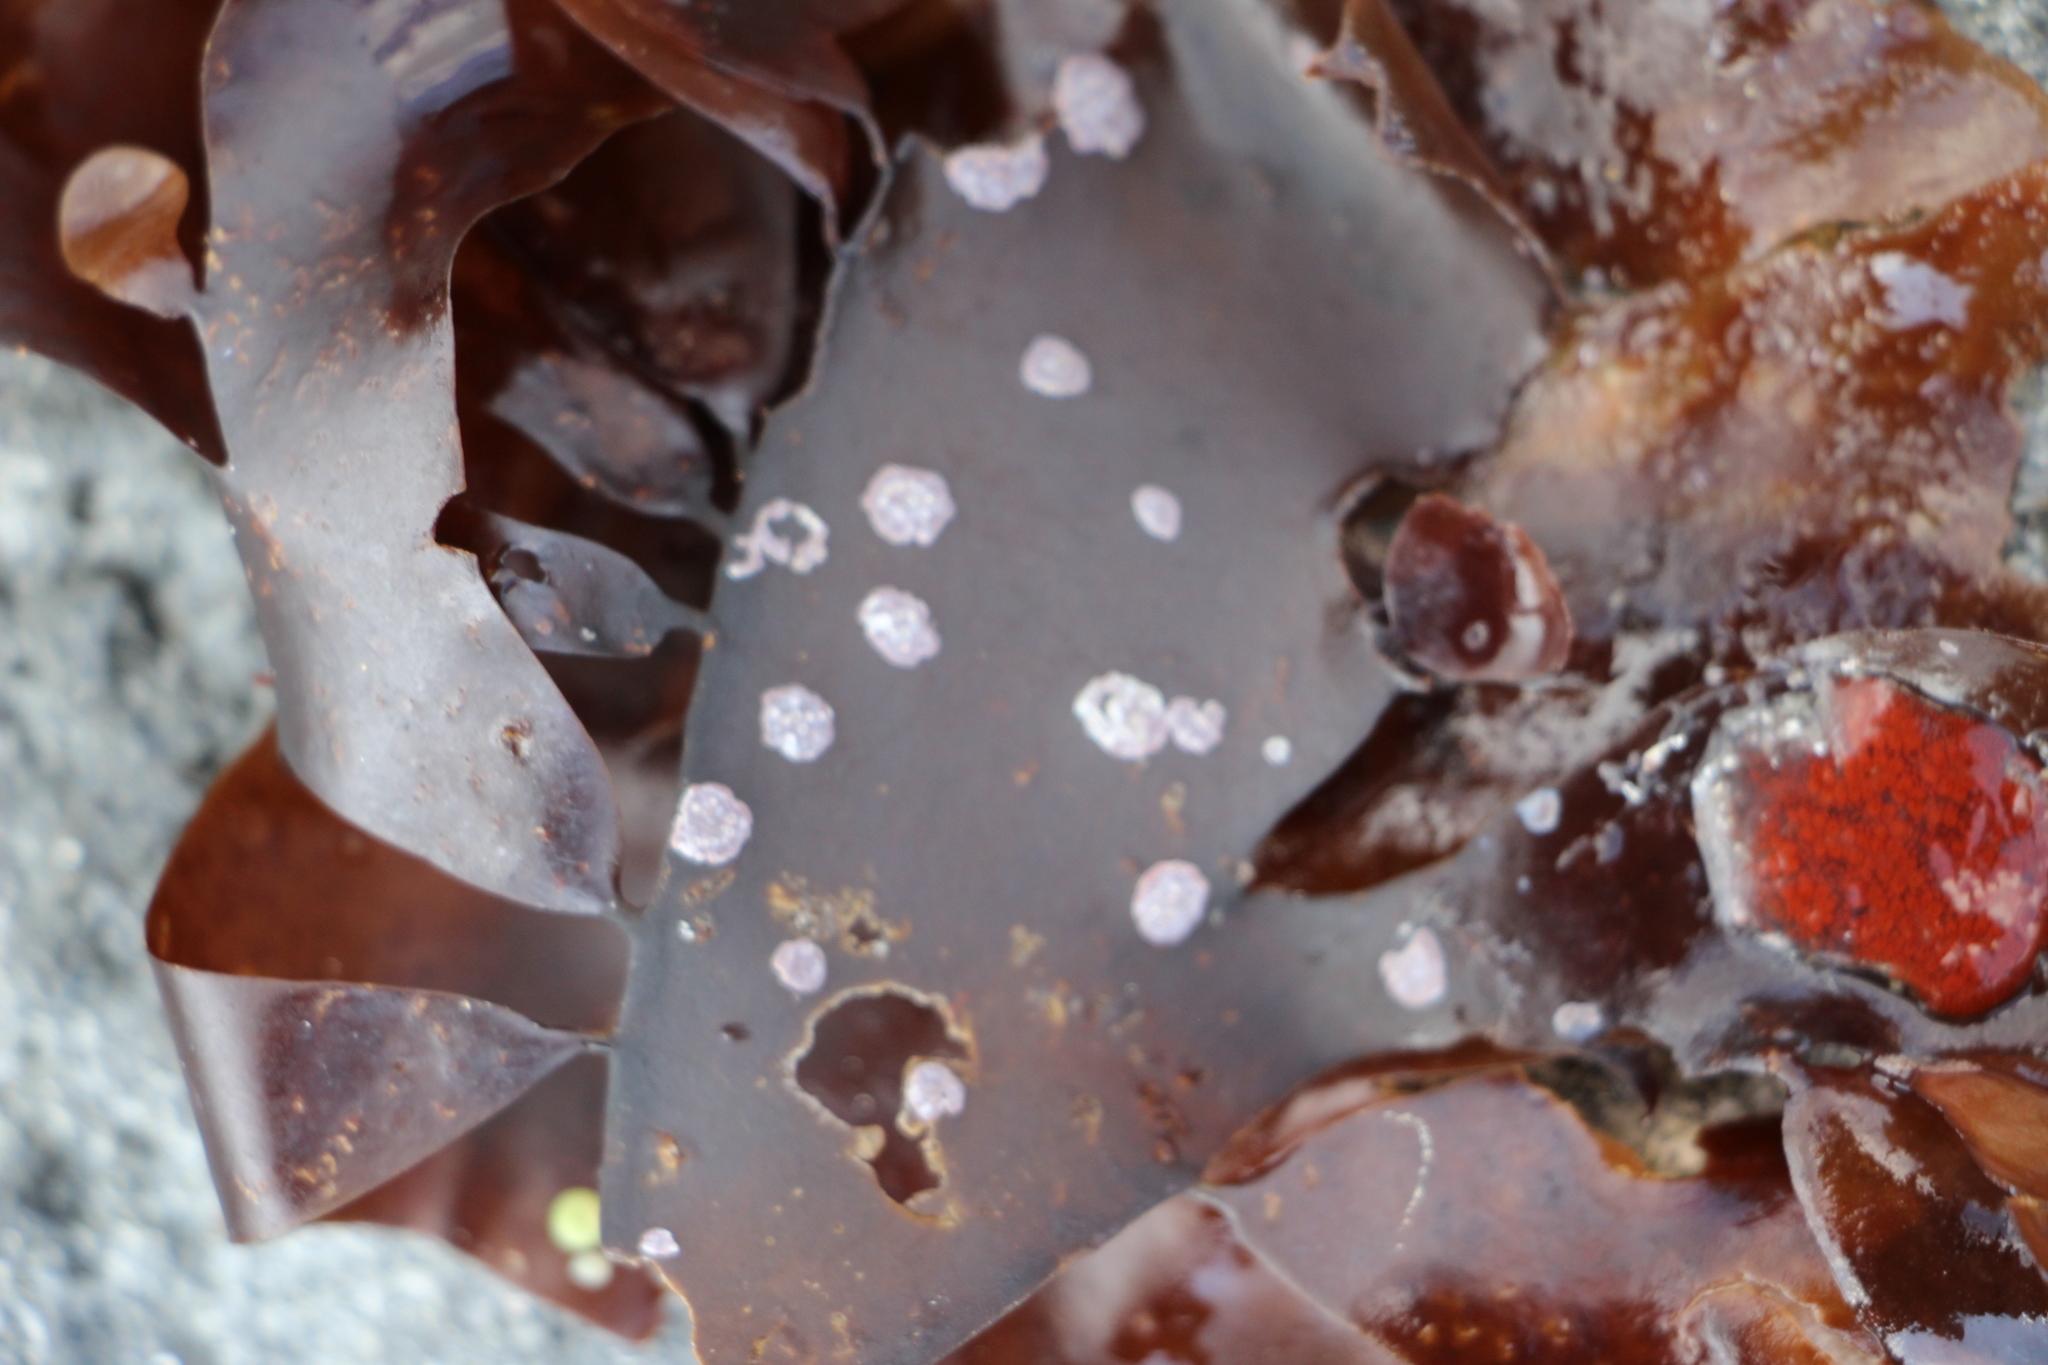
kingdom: Chromista
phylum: Ochrophyta
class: Phaeophyceae
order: Laminariales
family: Laminariaceae
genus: Saccharina
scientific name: Saccharina latissima
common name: Poor man's weather glass
